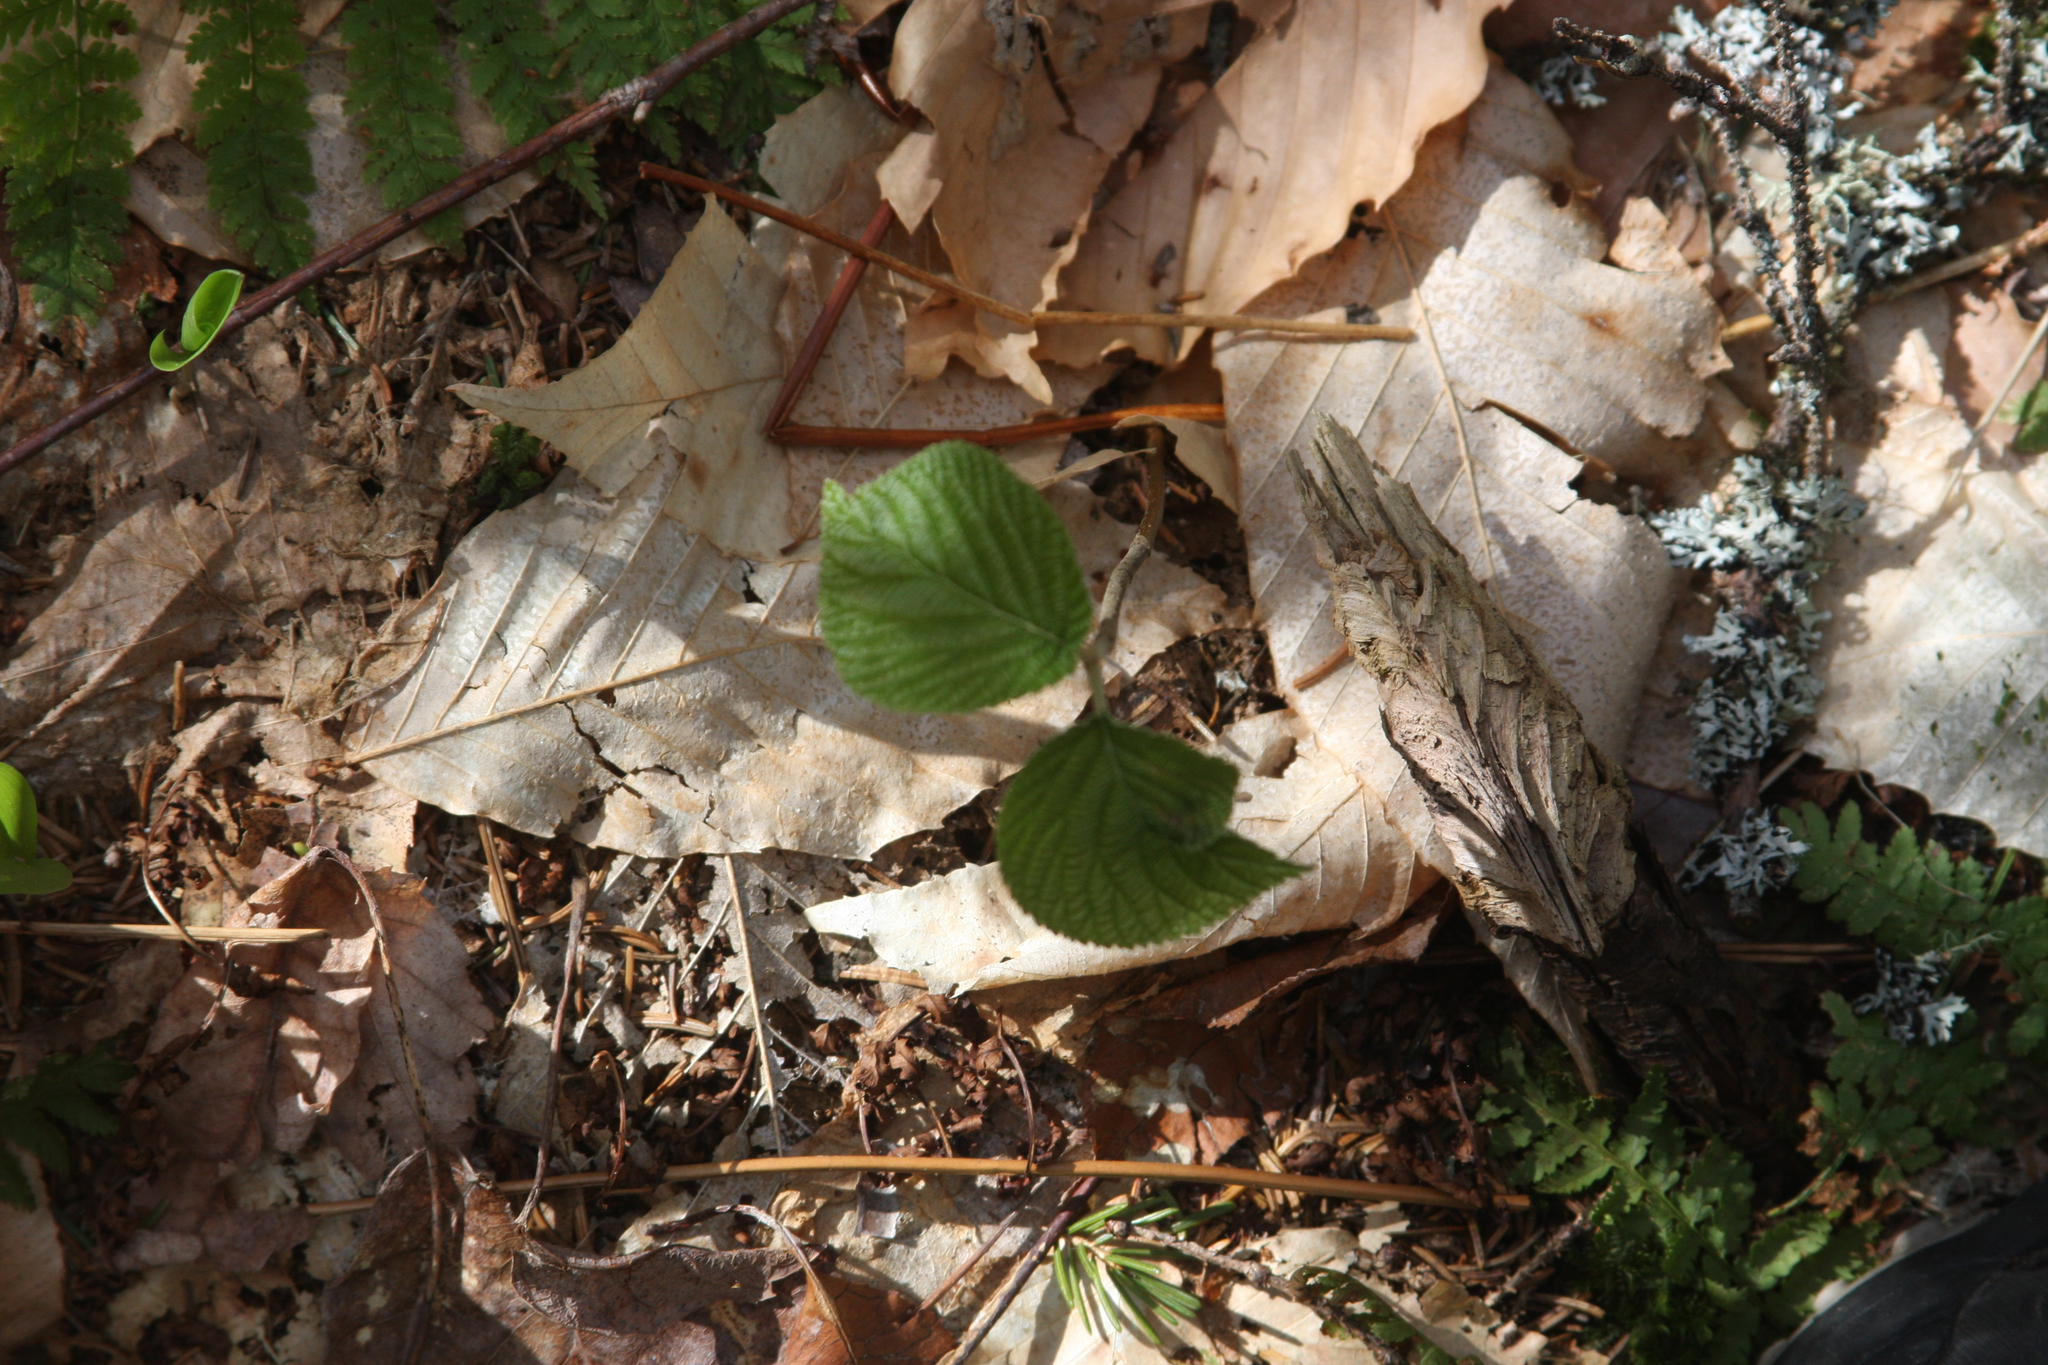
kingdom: Plantae
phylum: Tracheophyta
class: Magnoliopsida
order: Dipsacales
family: Viburnaceae
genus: Viburnum
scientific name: Viburnum lantanoides
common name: Hobblebush
